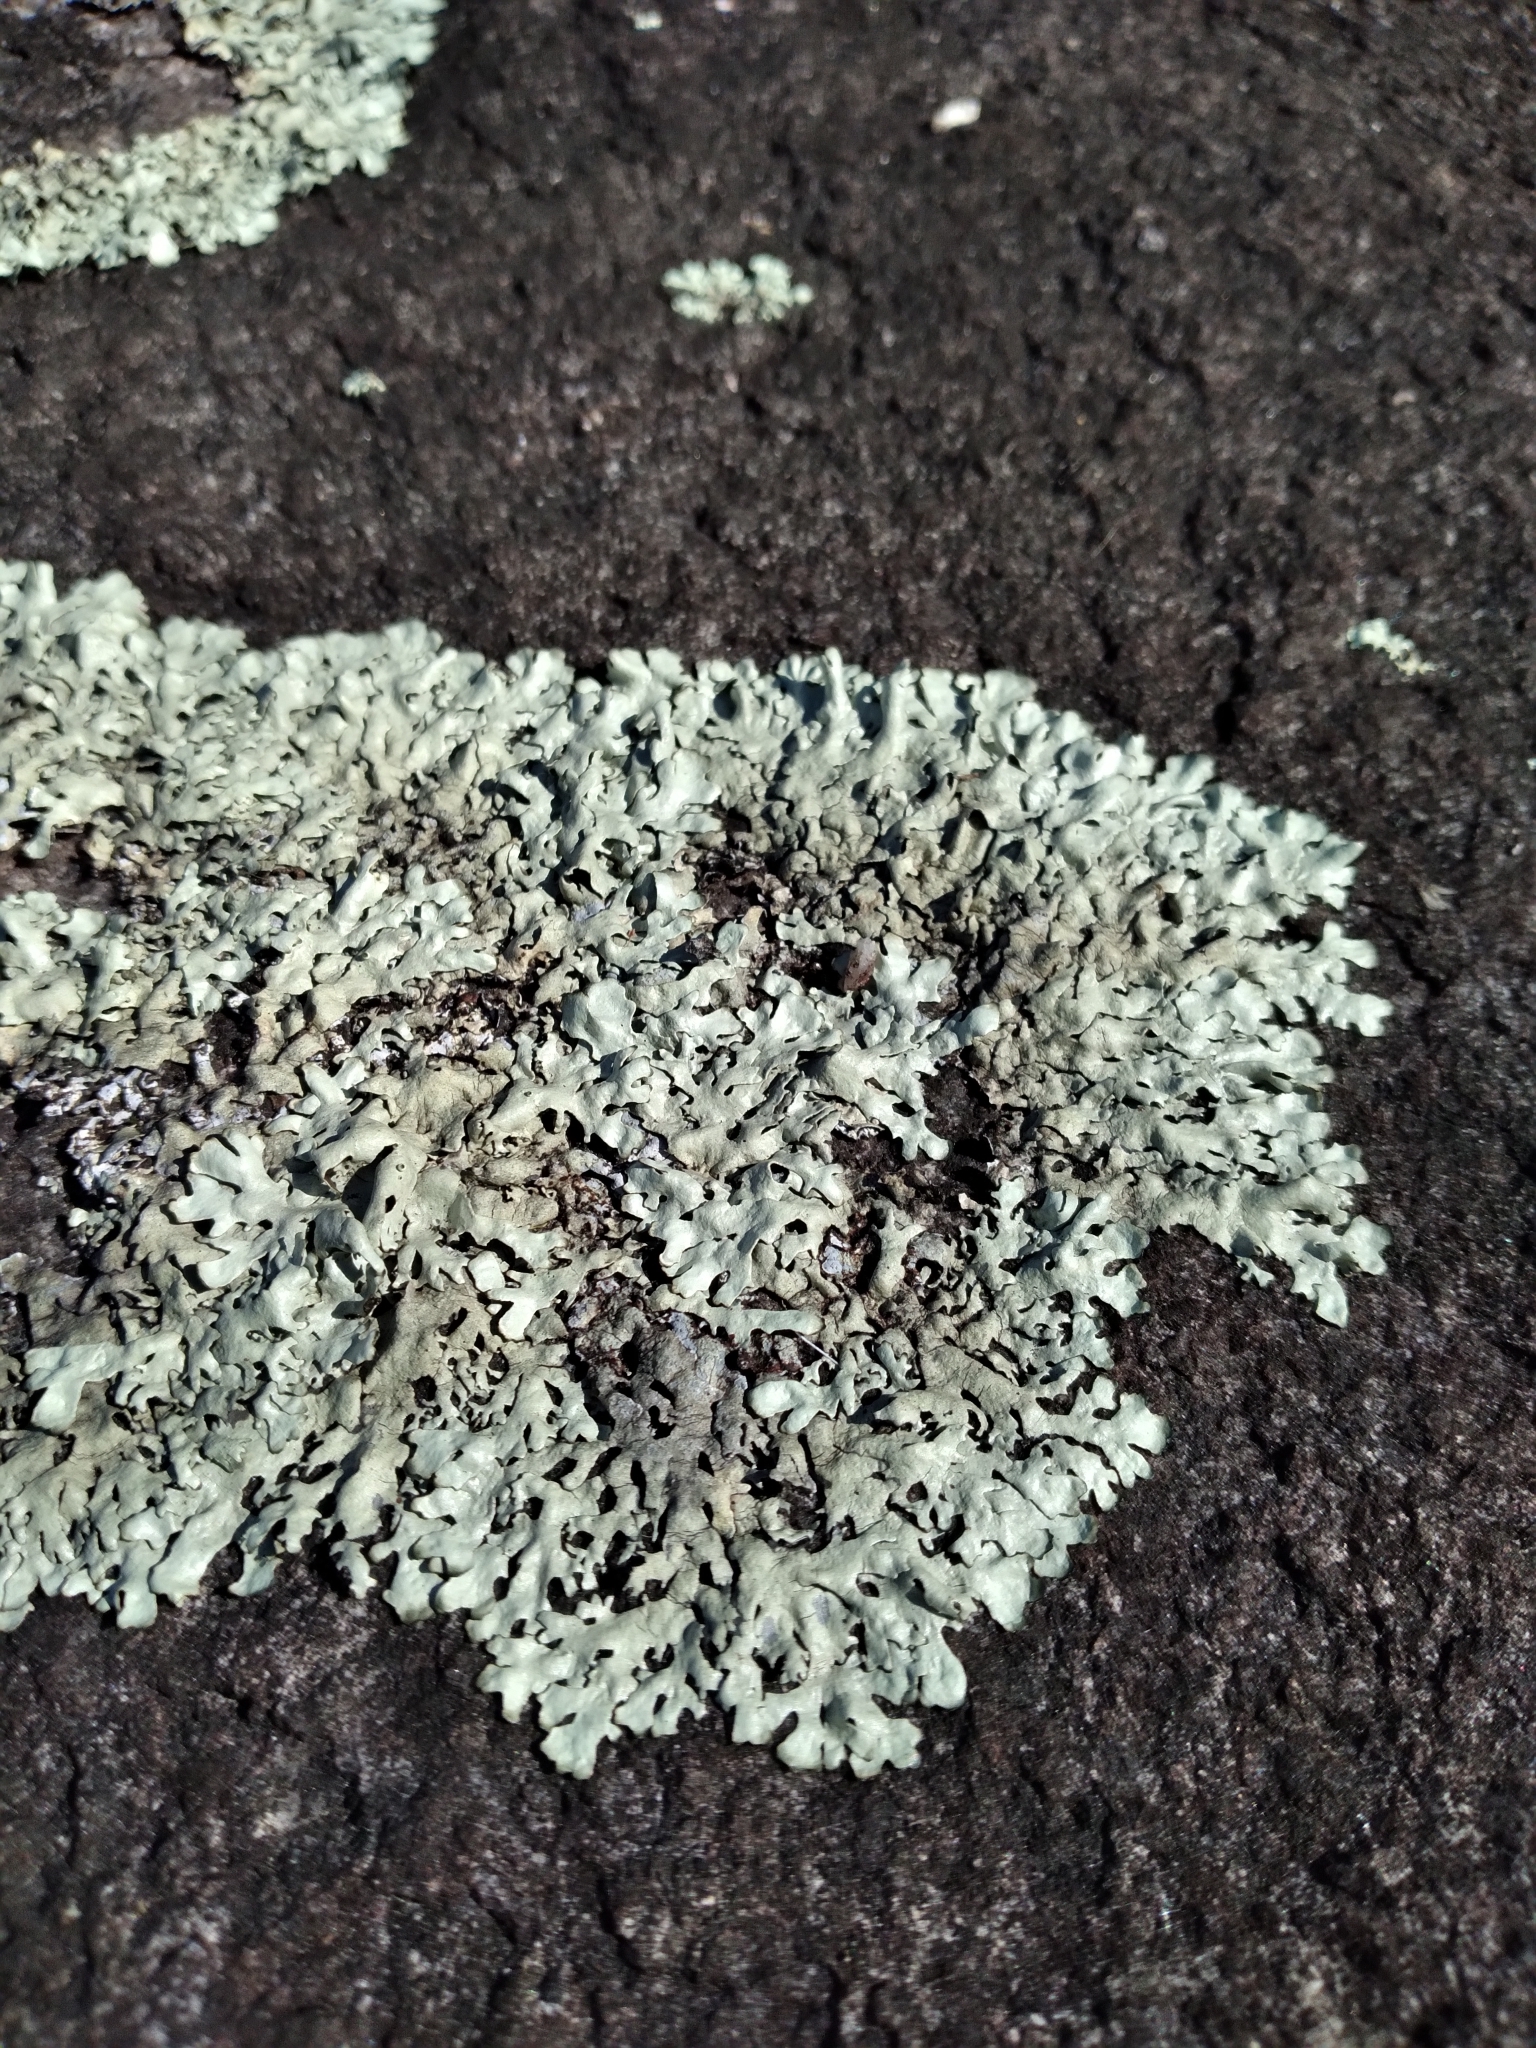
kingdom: Fungi
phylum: Ascomycota
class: Lecanoromycetes
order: Lecanorales
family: Parmeliaceae
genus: Xanthoparmelia
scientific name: Xanthoparmelia conspersa
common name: Peppered rock shield
